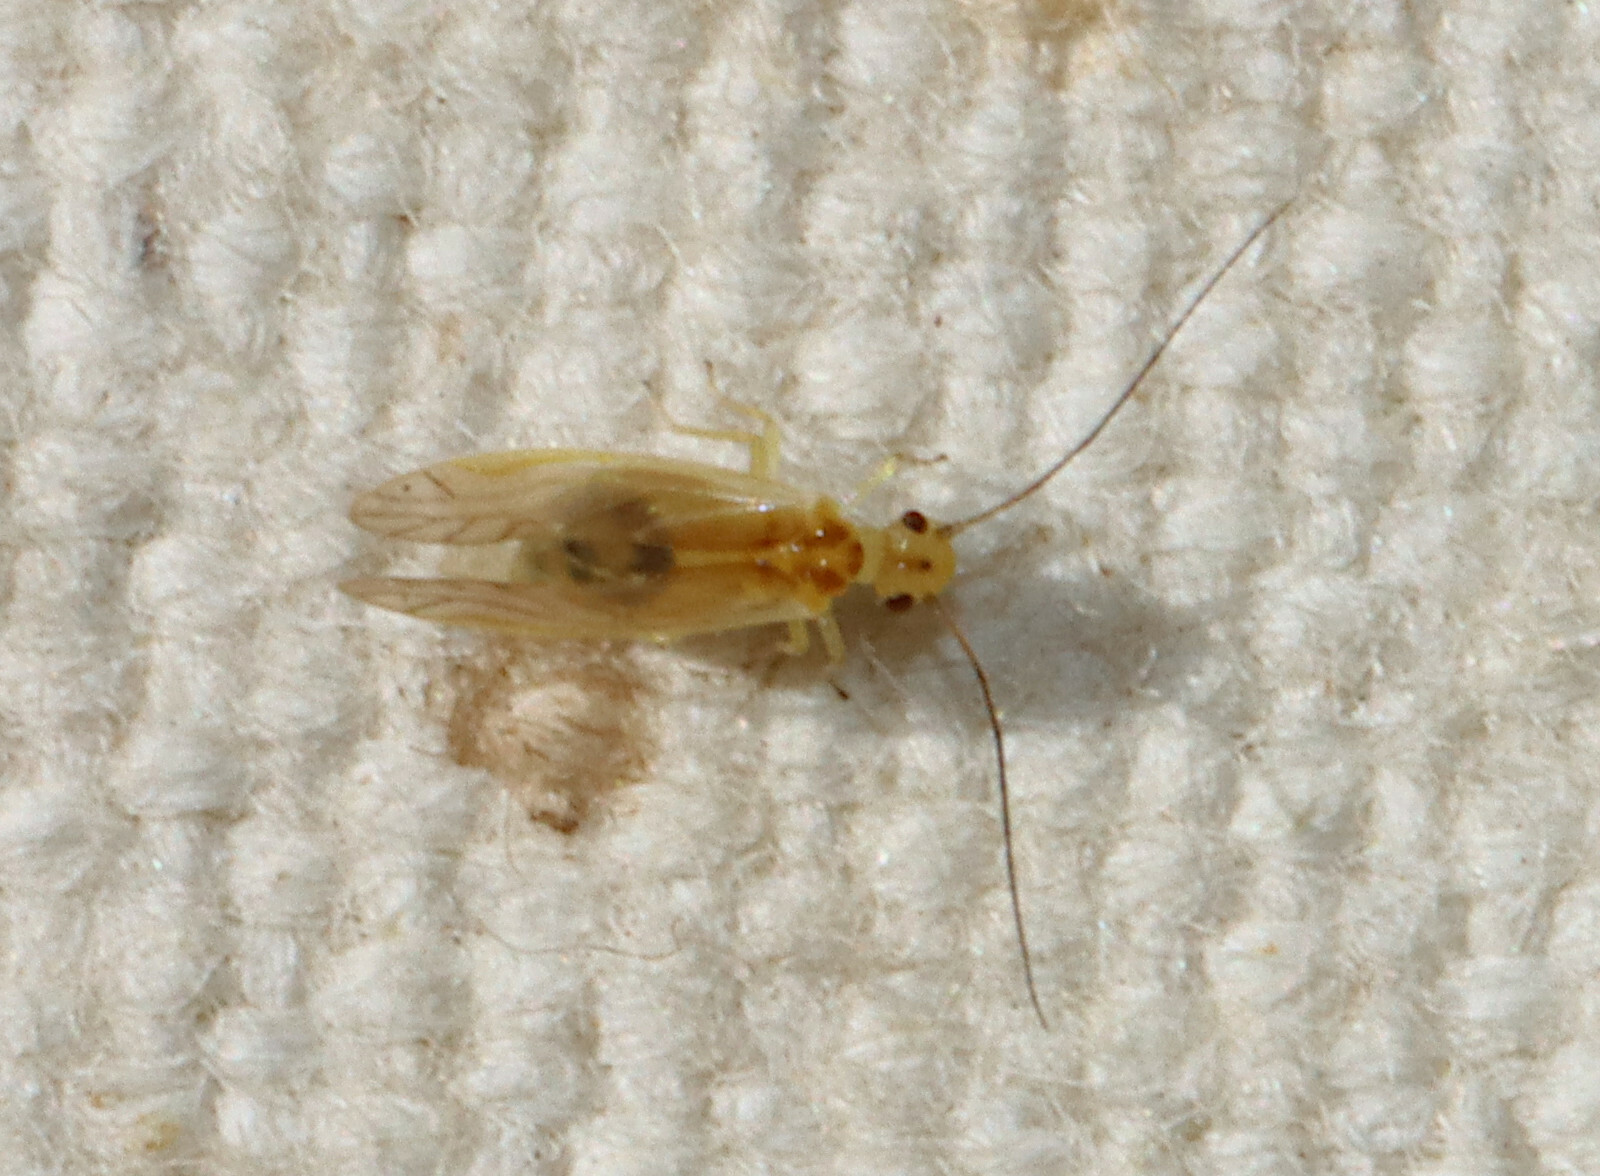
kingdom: Animalia
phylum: Arthropoda
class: Insecta
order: Psocodea
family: Caeciliusidae
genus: Valenzuela
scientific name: Valenzuela flavidus
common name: Yellow barklouse
